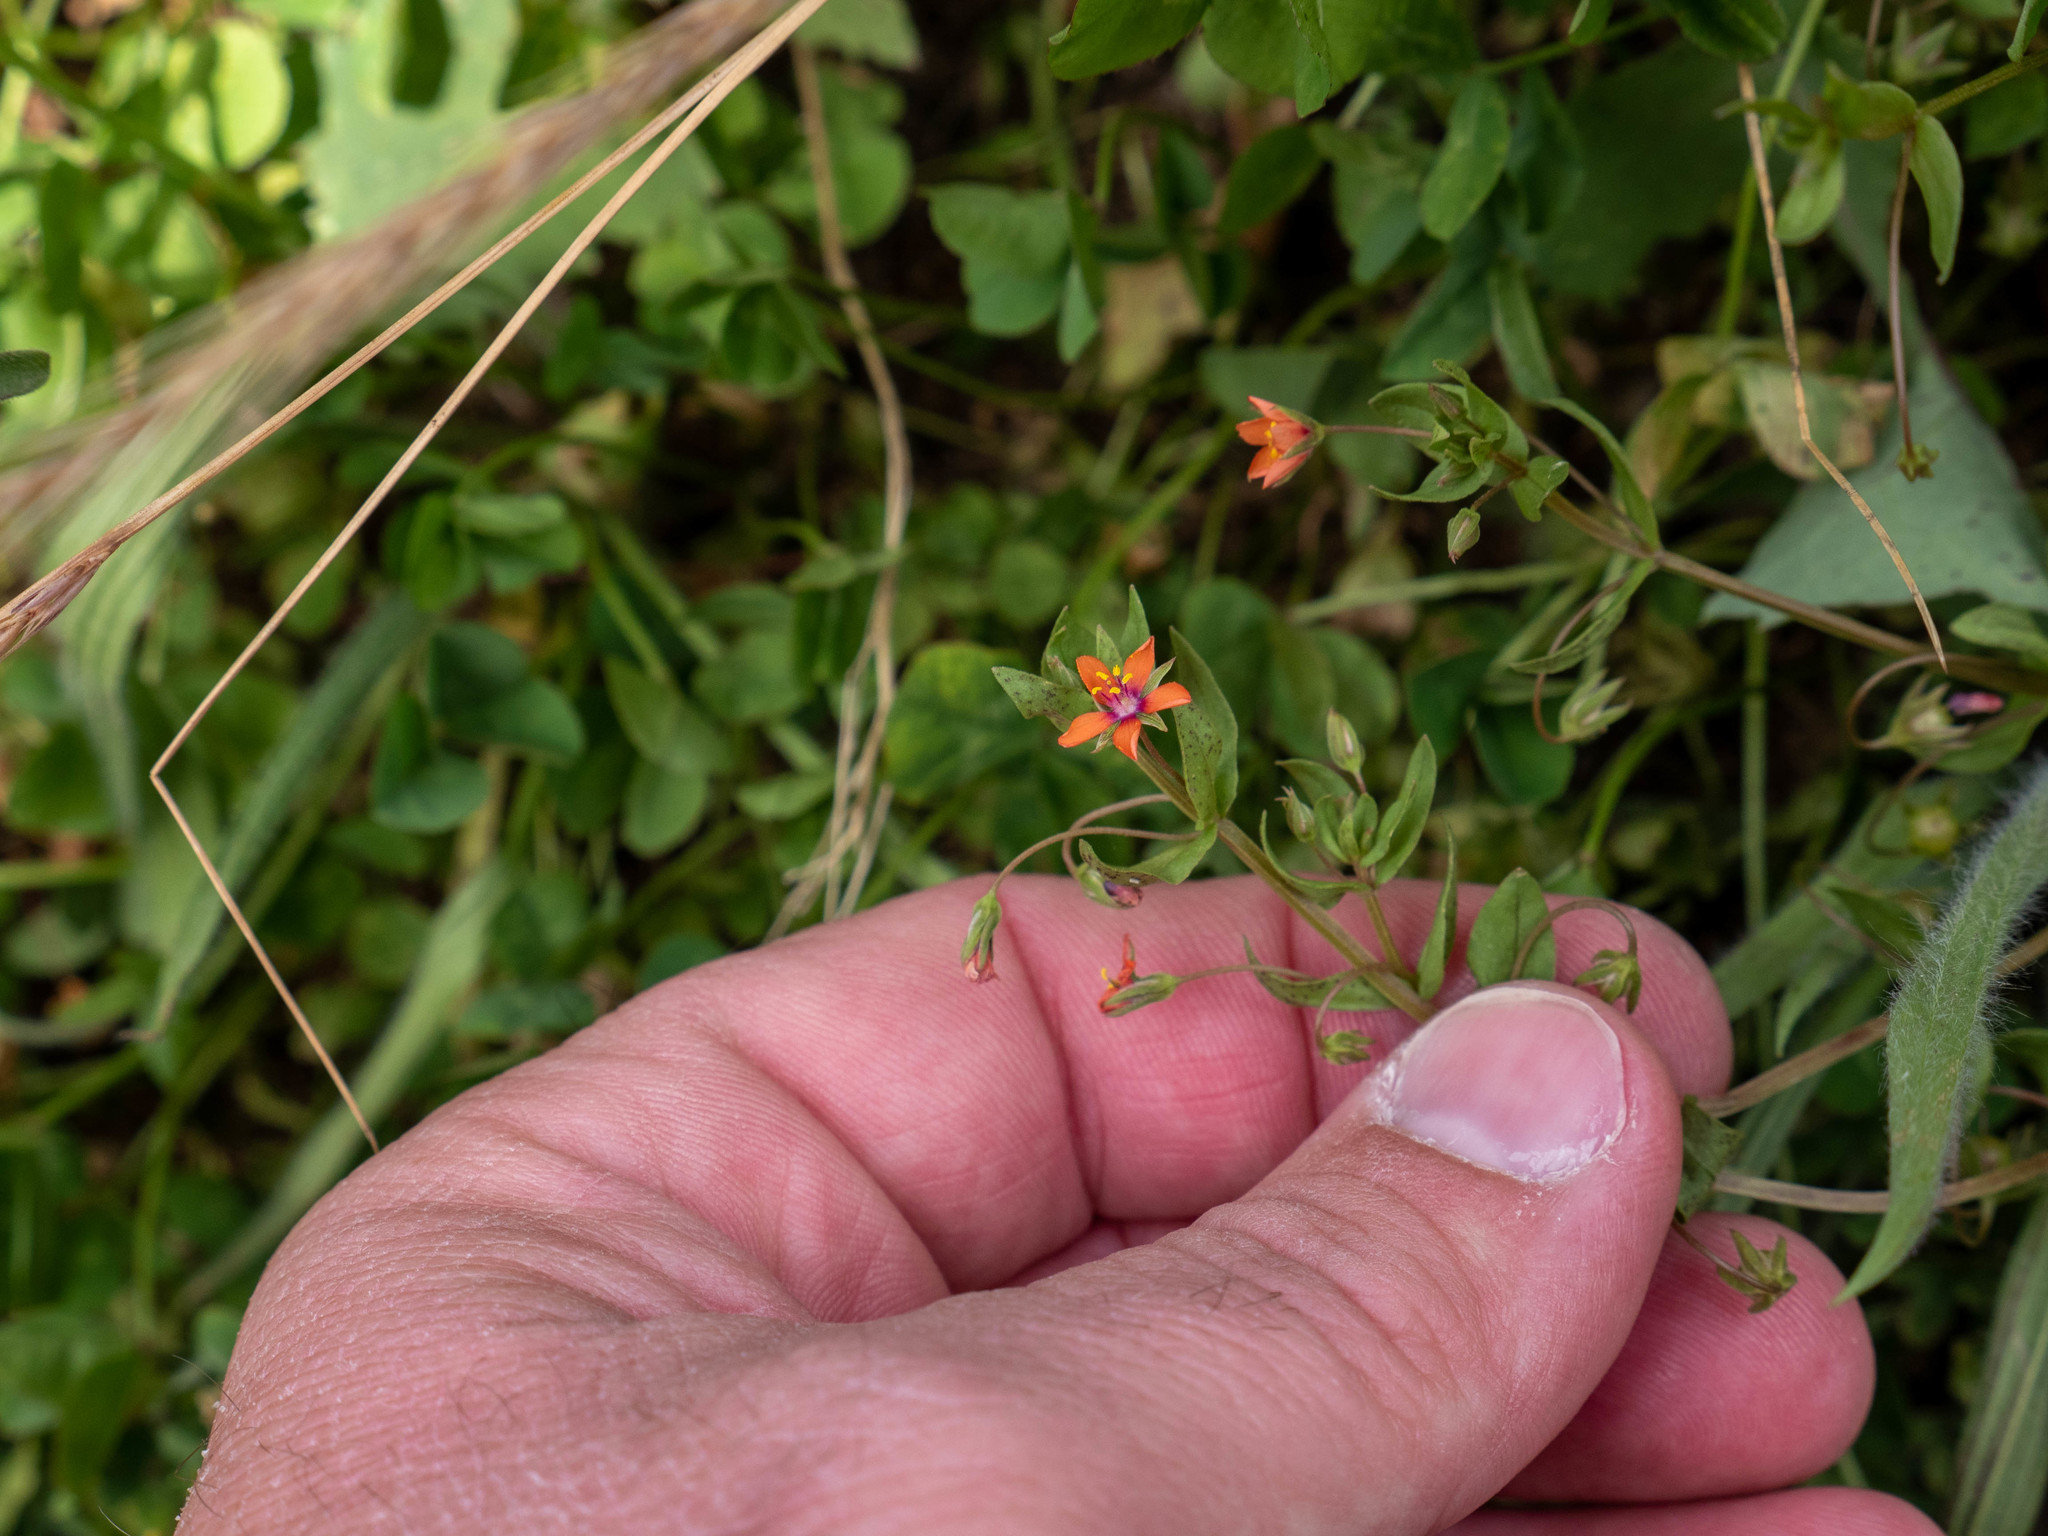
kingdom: Plantae
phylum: Tracheophyta
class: Magnoliopsida
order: Ericales
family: Primulaceae
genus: Lysimachia
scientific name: Lysimachia arvensis
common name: Scarlet pimpernel
